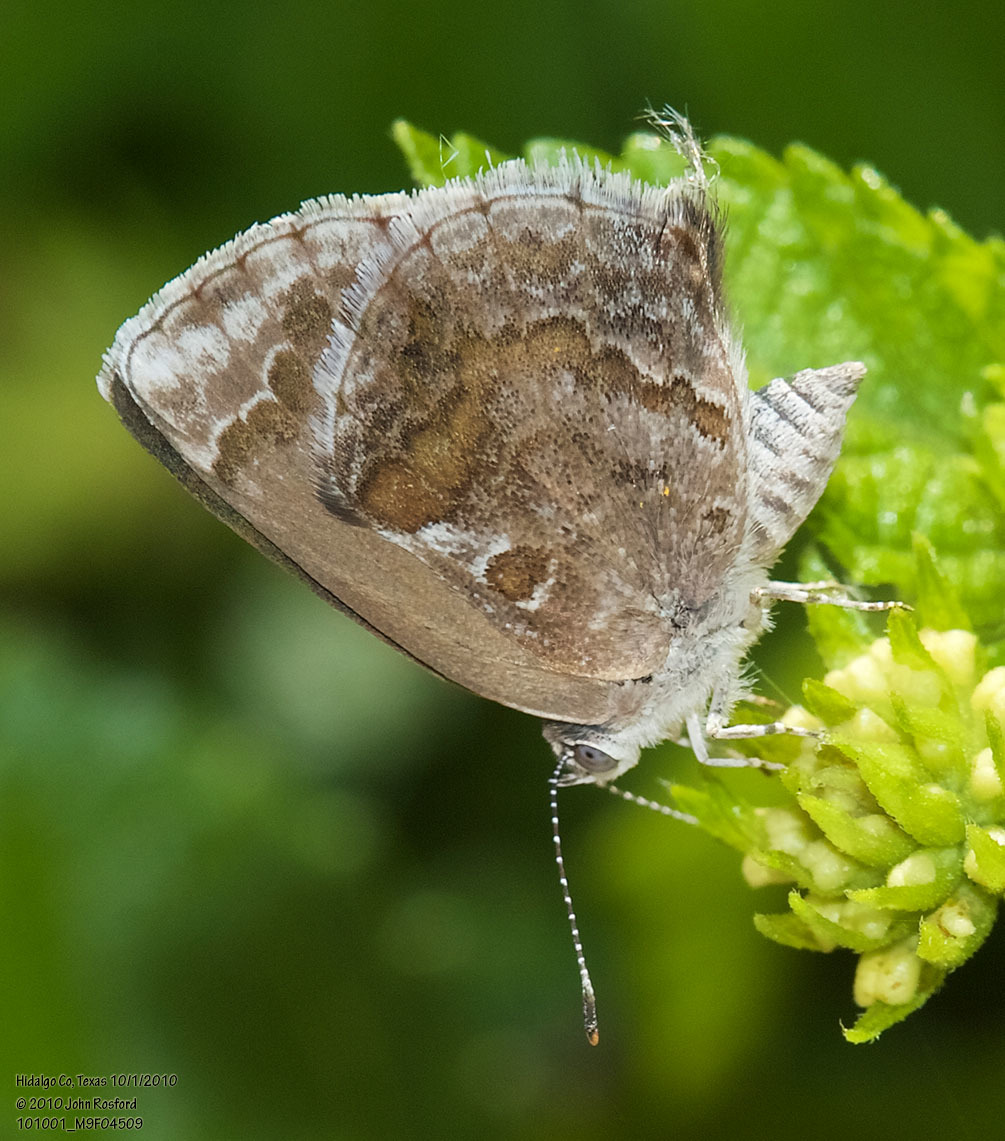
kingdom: Animalia
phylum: Arthropoda
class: Insecta
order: Lepidoptera
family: Lycaenidae
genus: Strymon
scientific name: Strymon bazochii
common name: Lantana scrub-hairstreak
